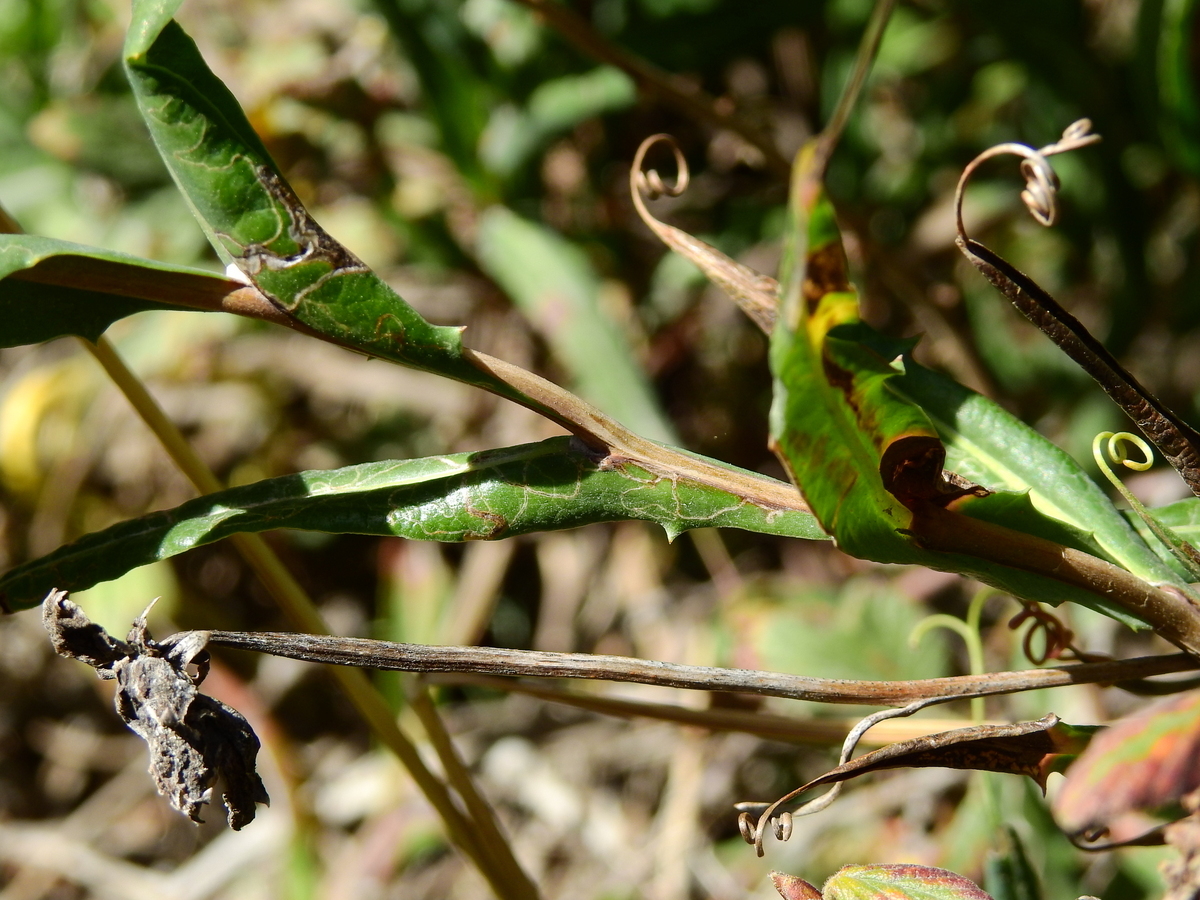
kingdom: Plantae
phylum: Tracheophyta
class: Magnoliopsida
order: Asterales
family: Asteraceae
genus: Mutisia
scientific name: Mutisia decurrens
